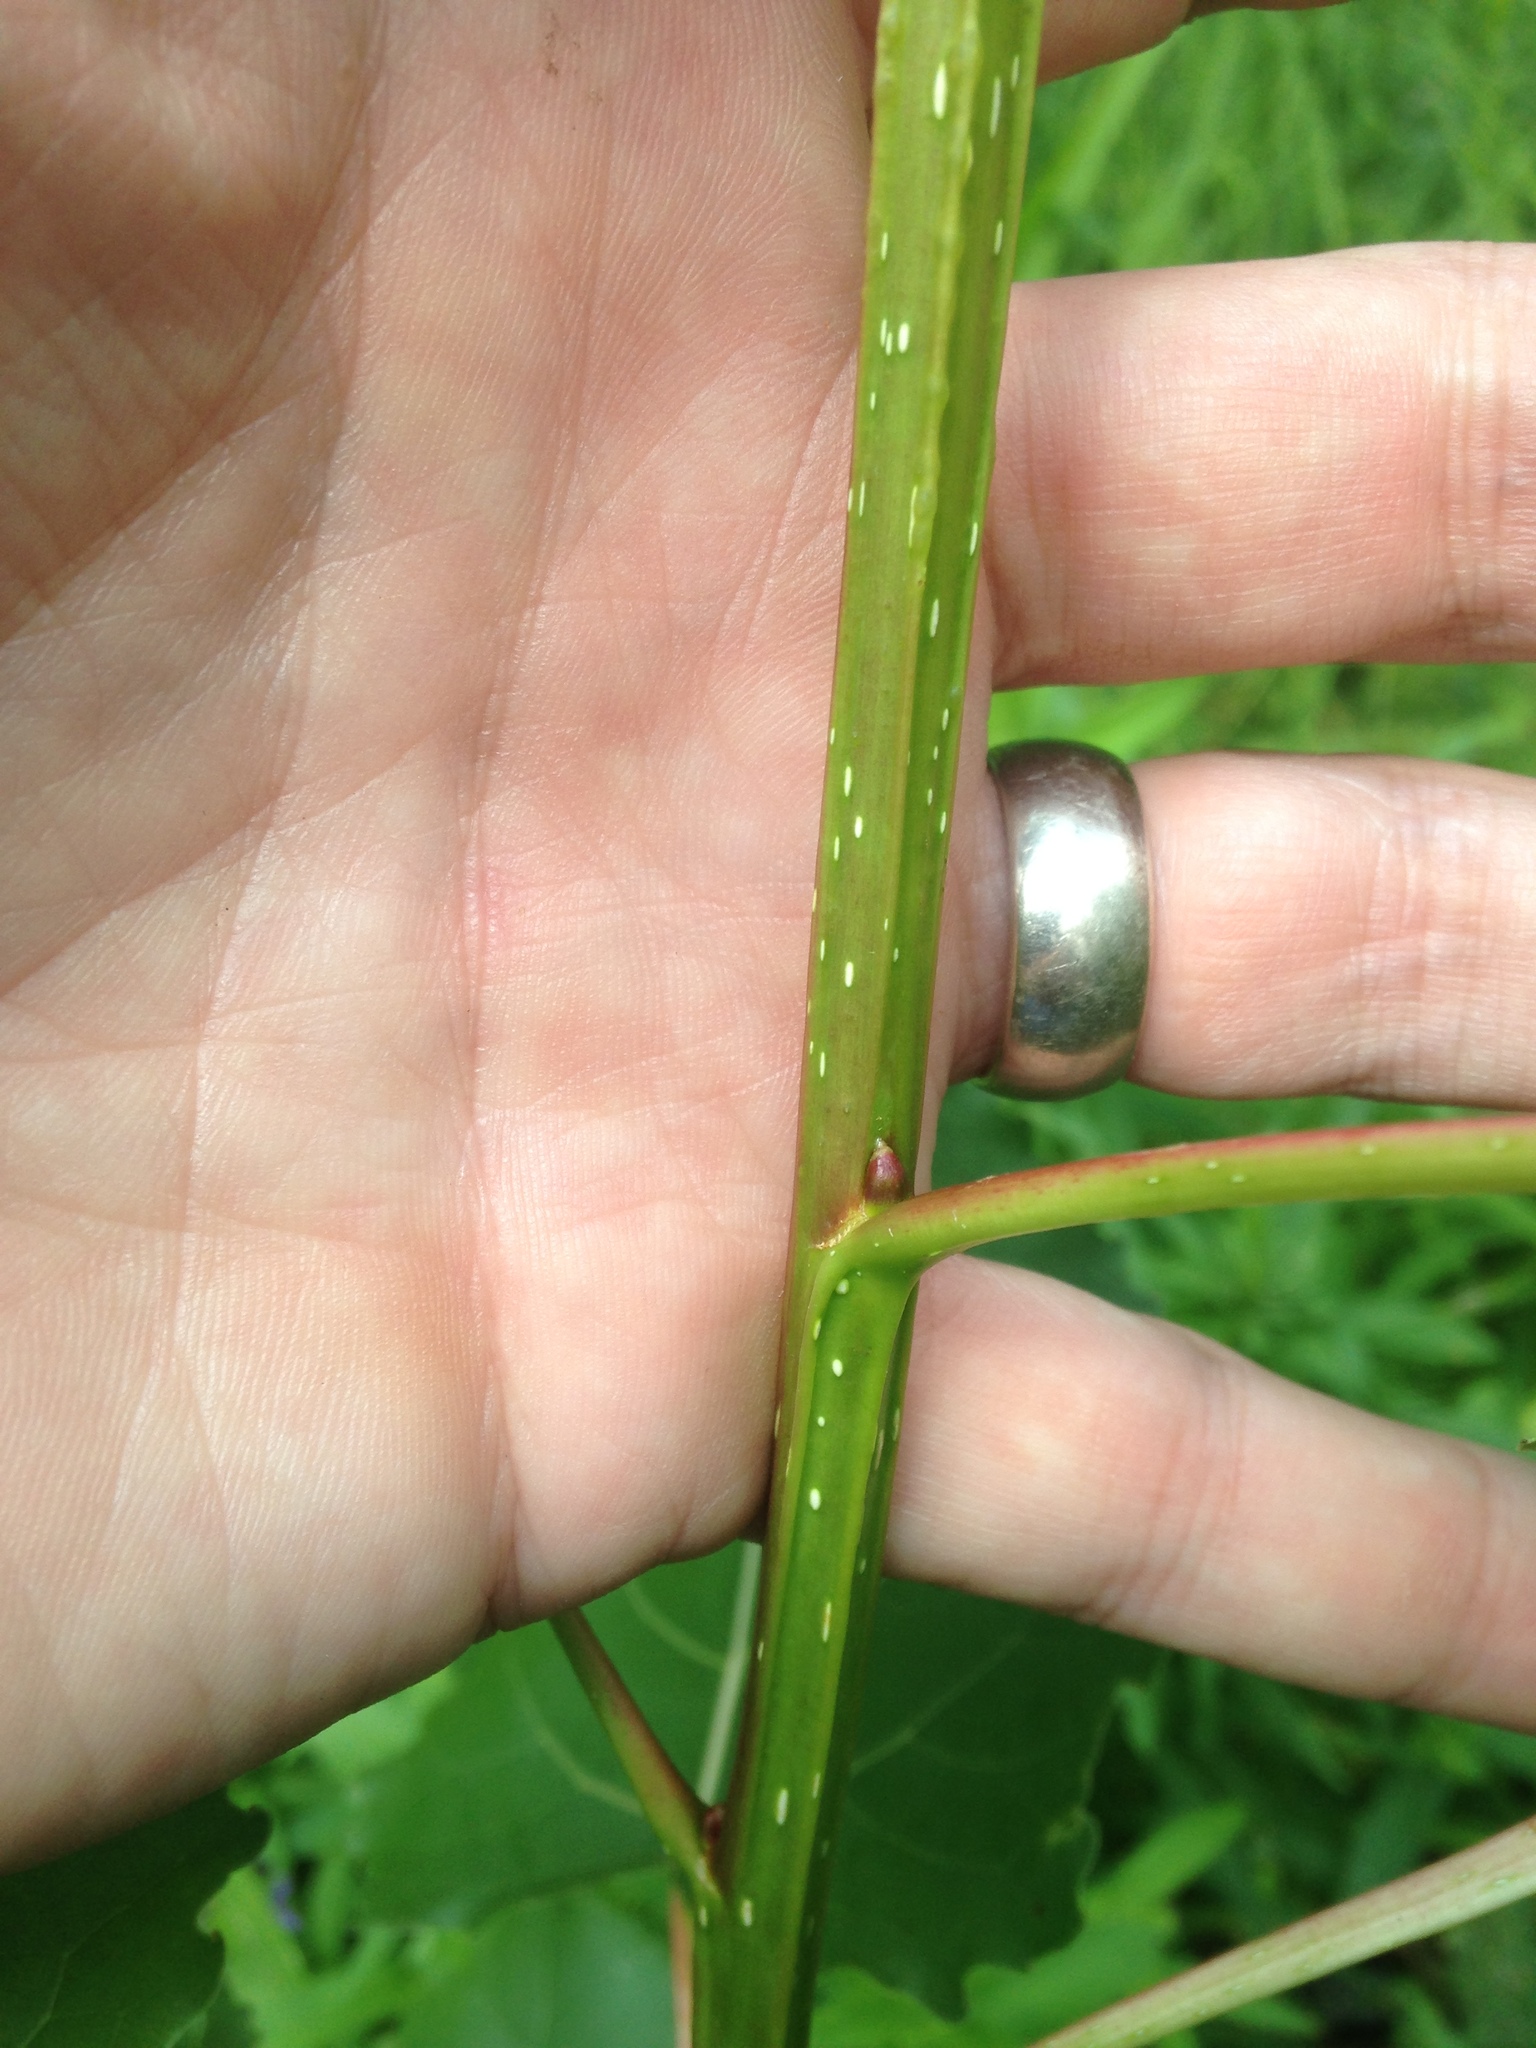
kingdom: Plantae
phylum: Tracheophyta
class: Magnoliopsida
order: Malpighiales
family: Salicaceae
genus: Populus
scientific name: Populus deltoides
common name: Eastern cottonwood
